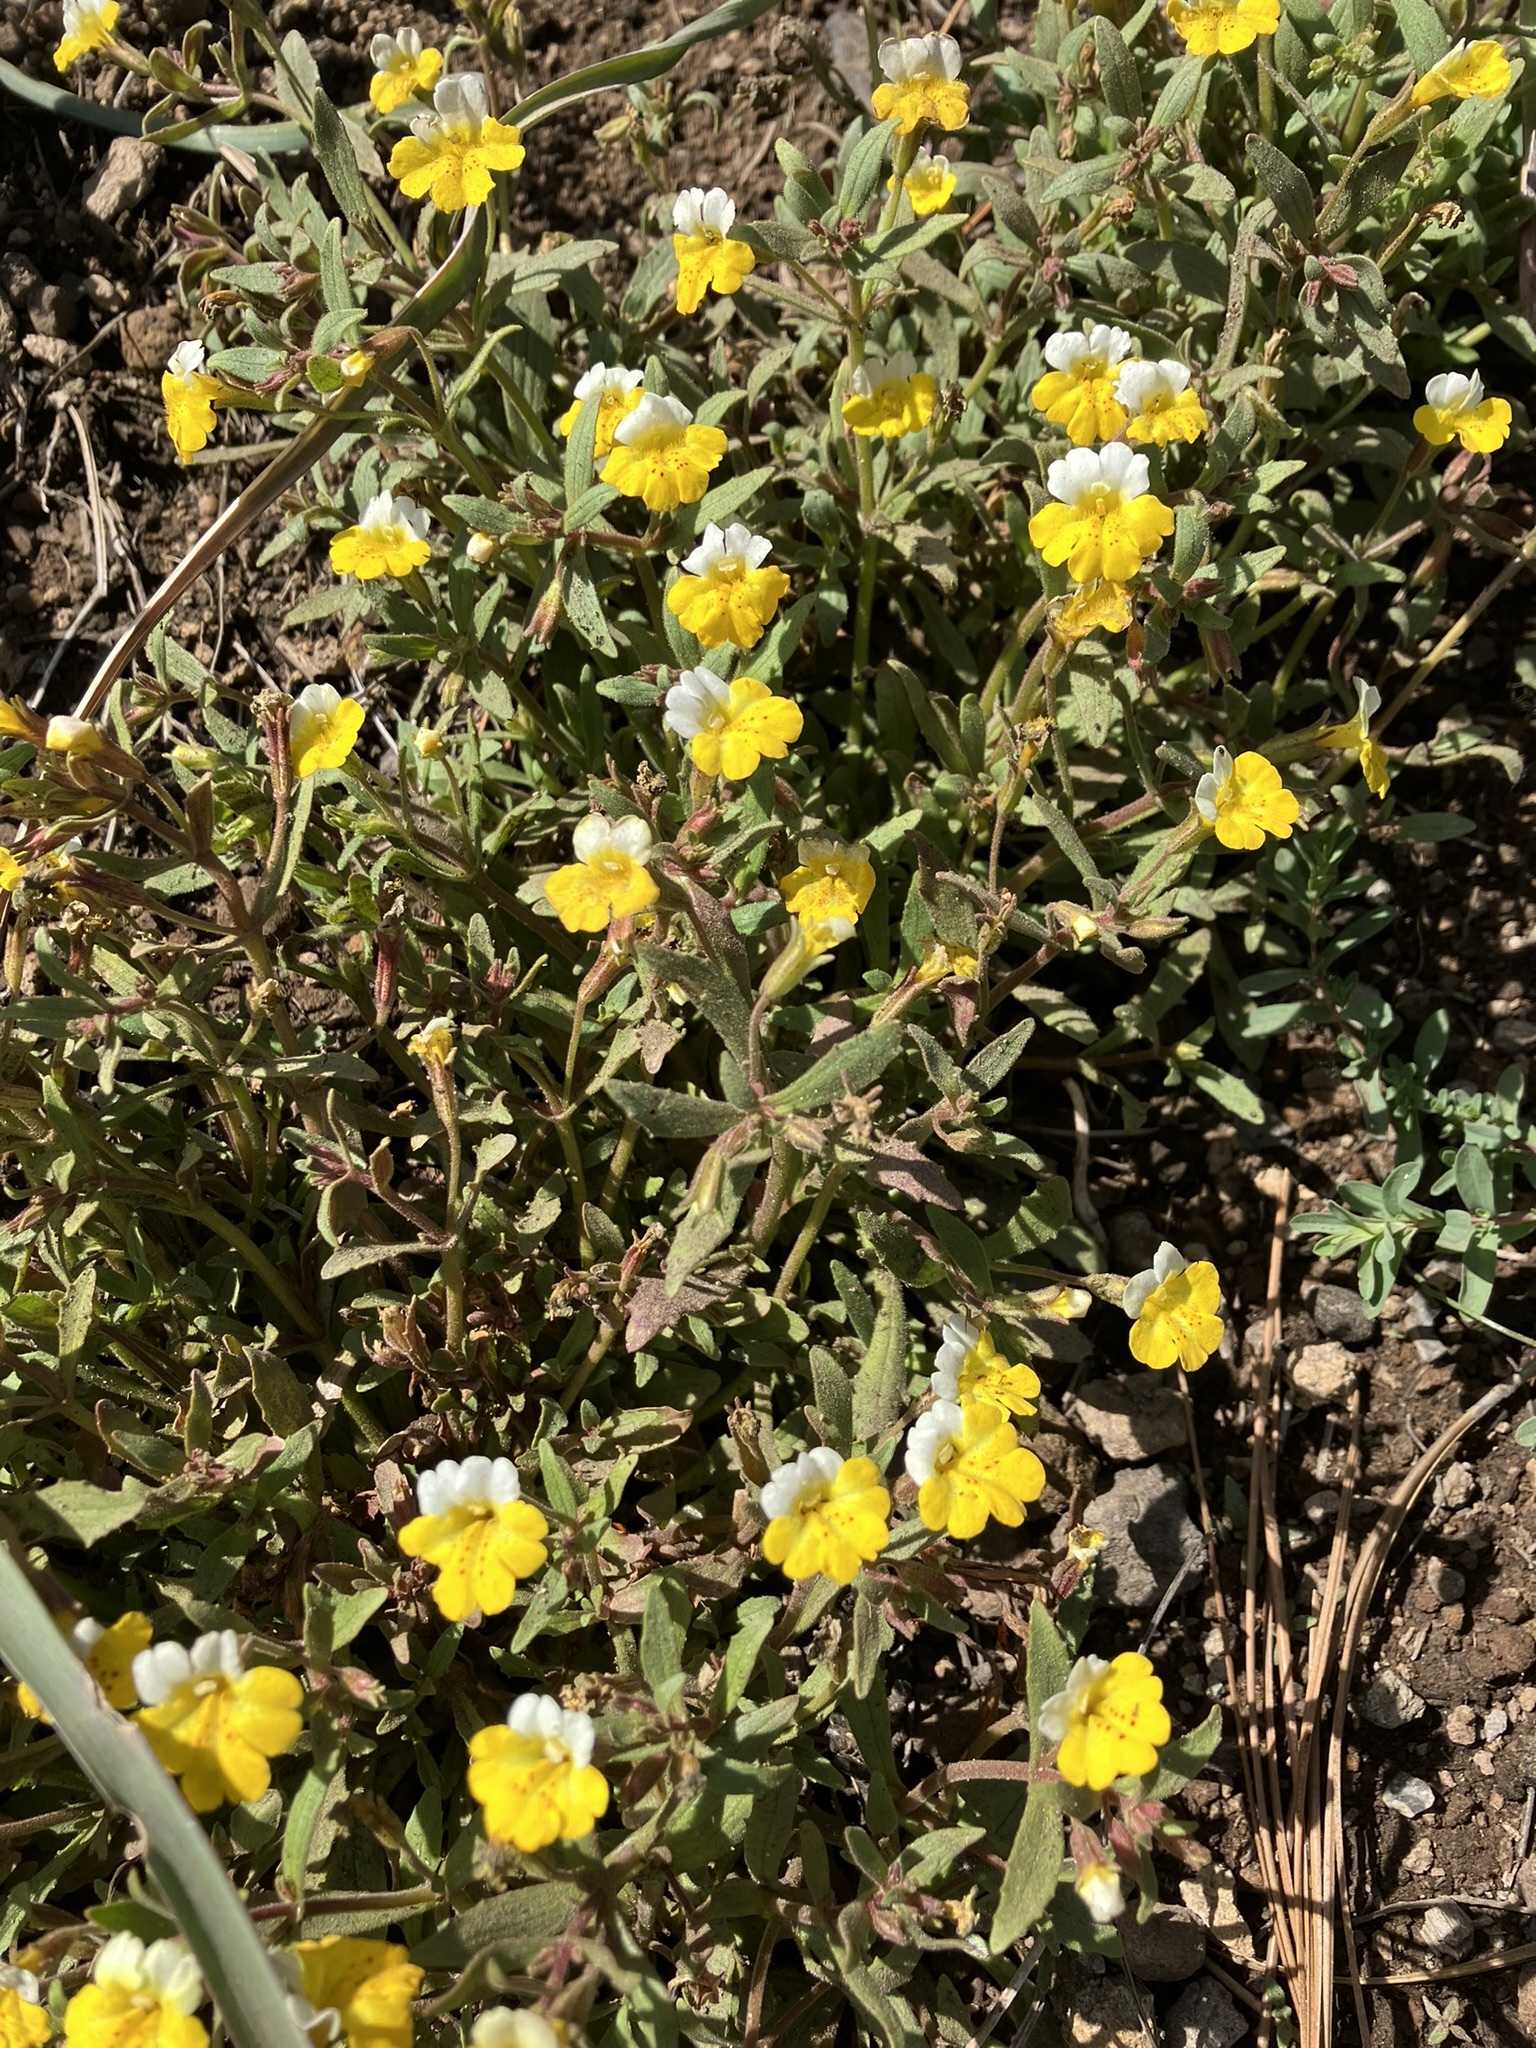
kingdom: Plantae
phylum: Tracheophyta
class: Magnoliopsida
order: Lamiales
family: Phrymaceae
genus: Erythranthe
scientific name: Erythranthe bicolor
